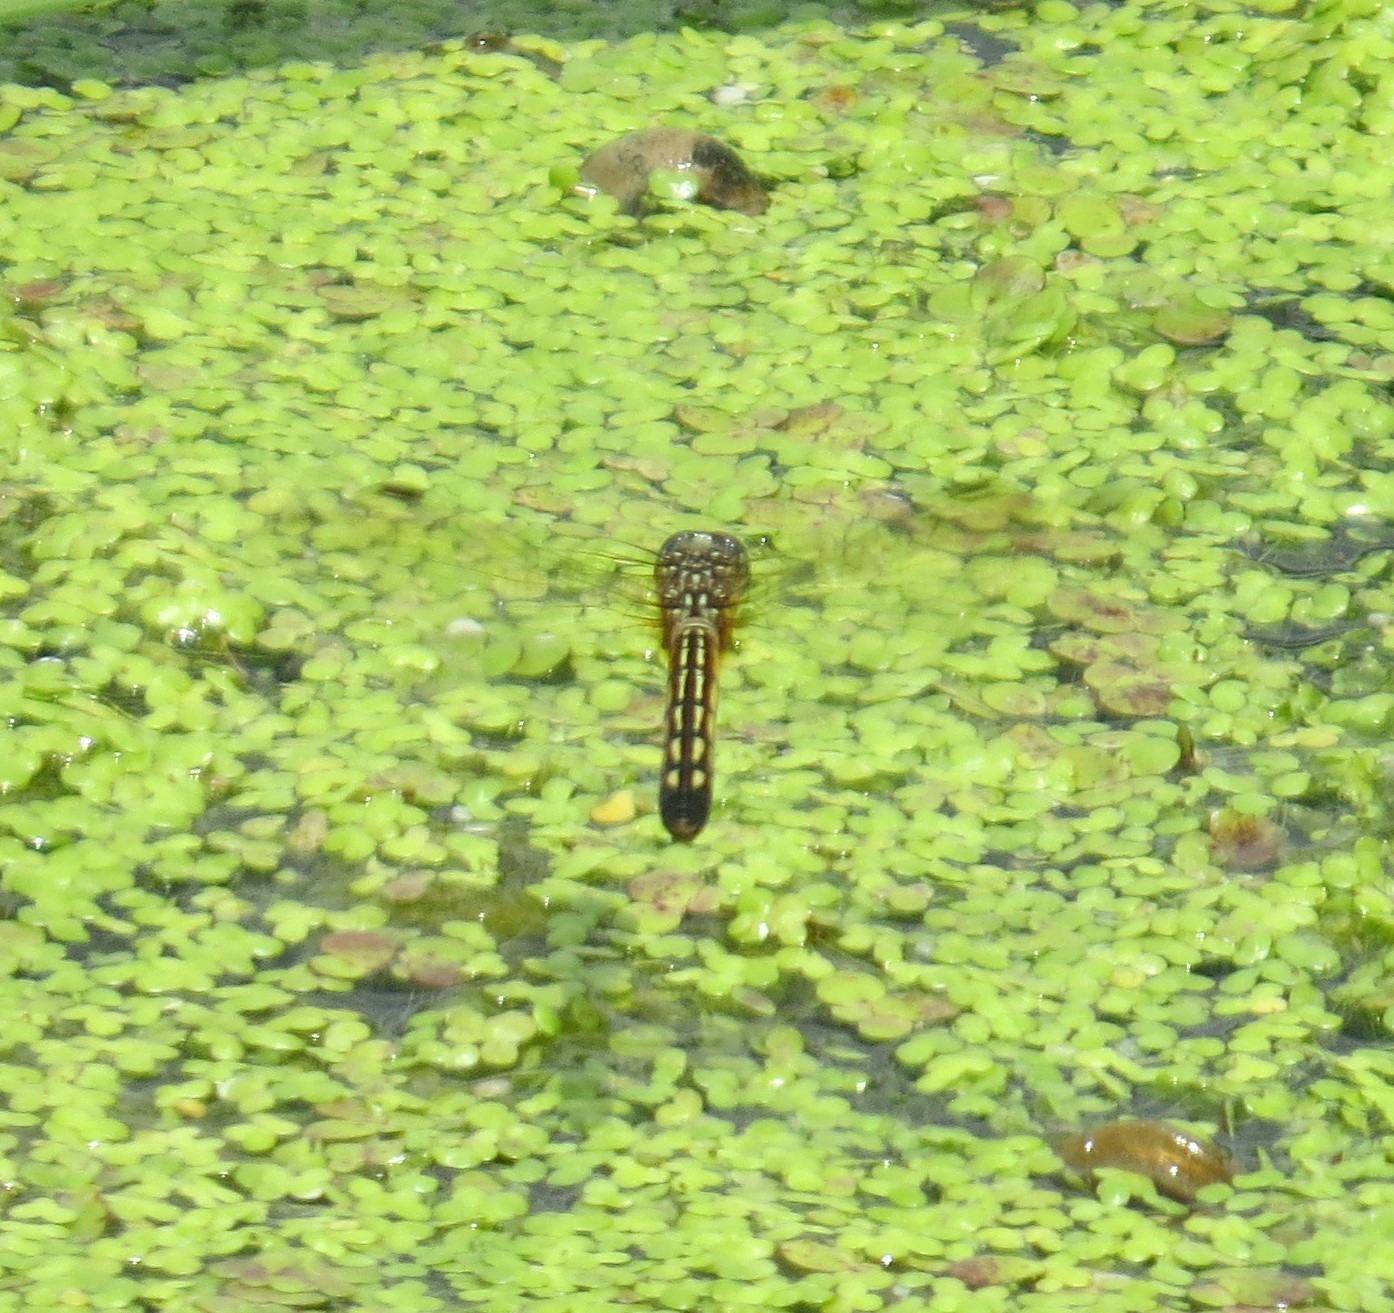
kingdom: Animalia
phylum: Arthropoda
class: Insecta
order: Odonata
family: Libellulidae
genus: Pachydiplax
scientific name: Pachydiplax longipennis
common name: Blue dasher
